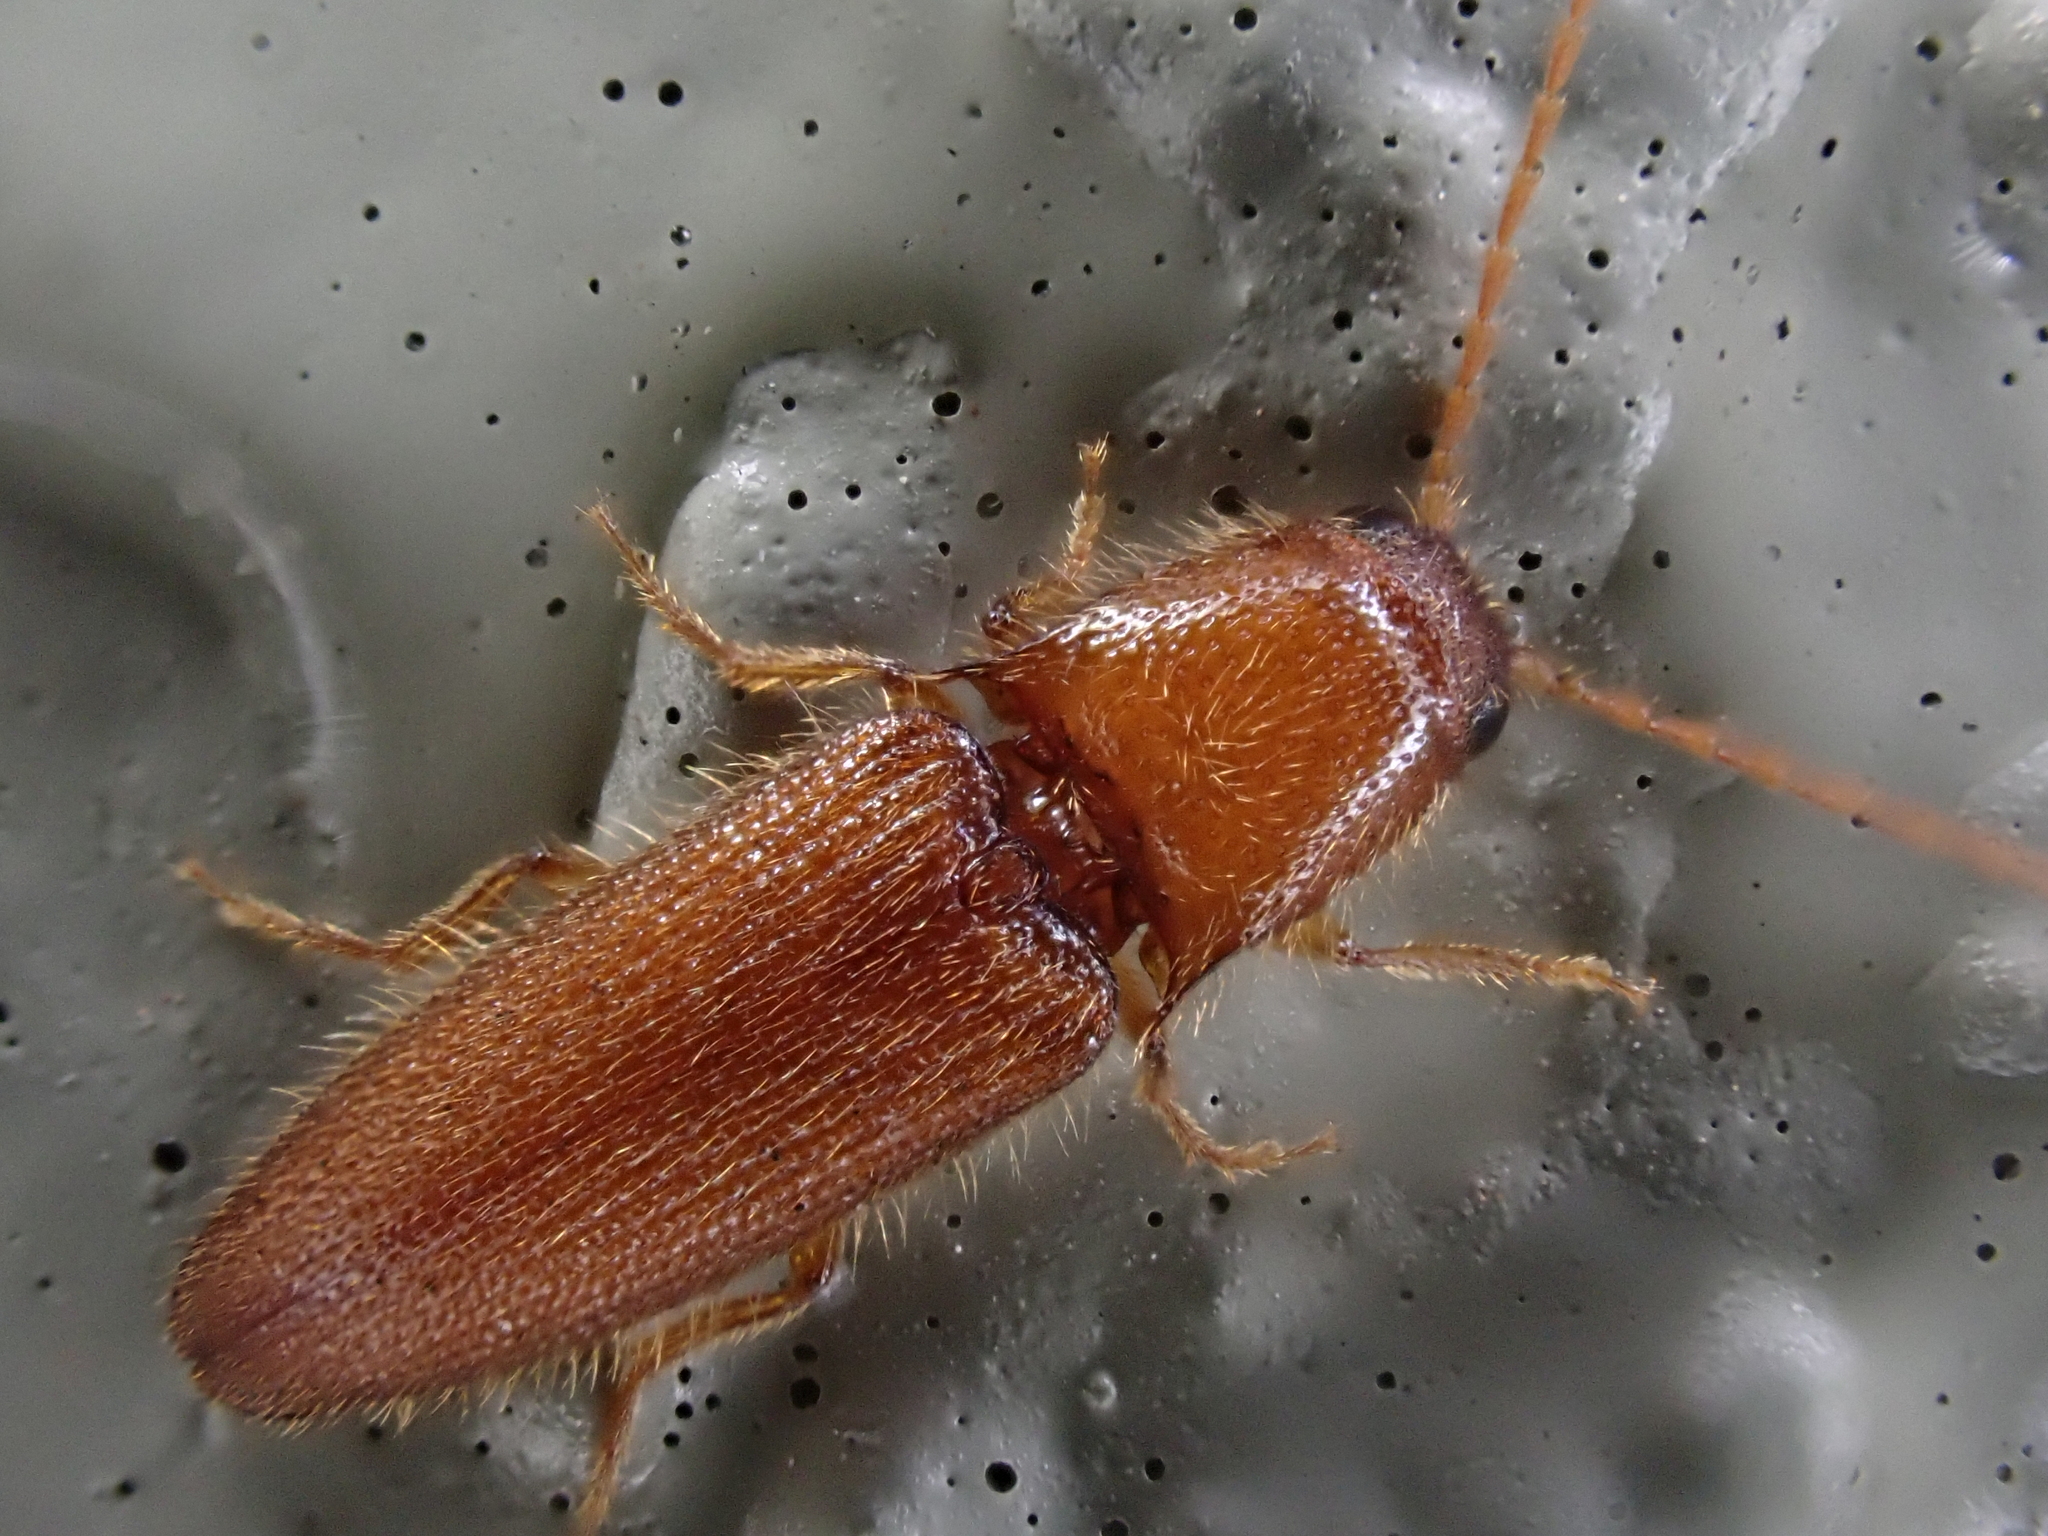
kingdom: Animalia
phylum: Arthropoda
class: Insecta
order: Coleoptera
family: Elateridae
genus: Dipropus
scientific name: Dipropus
